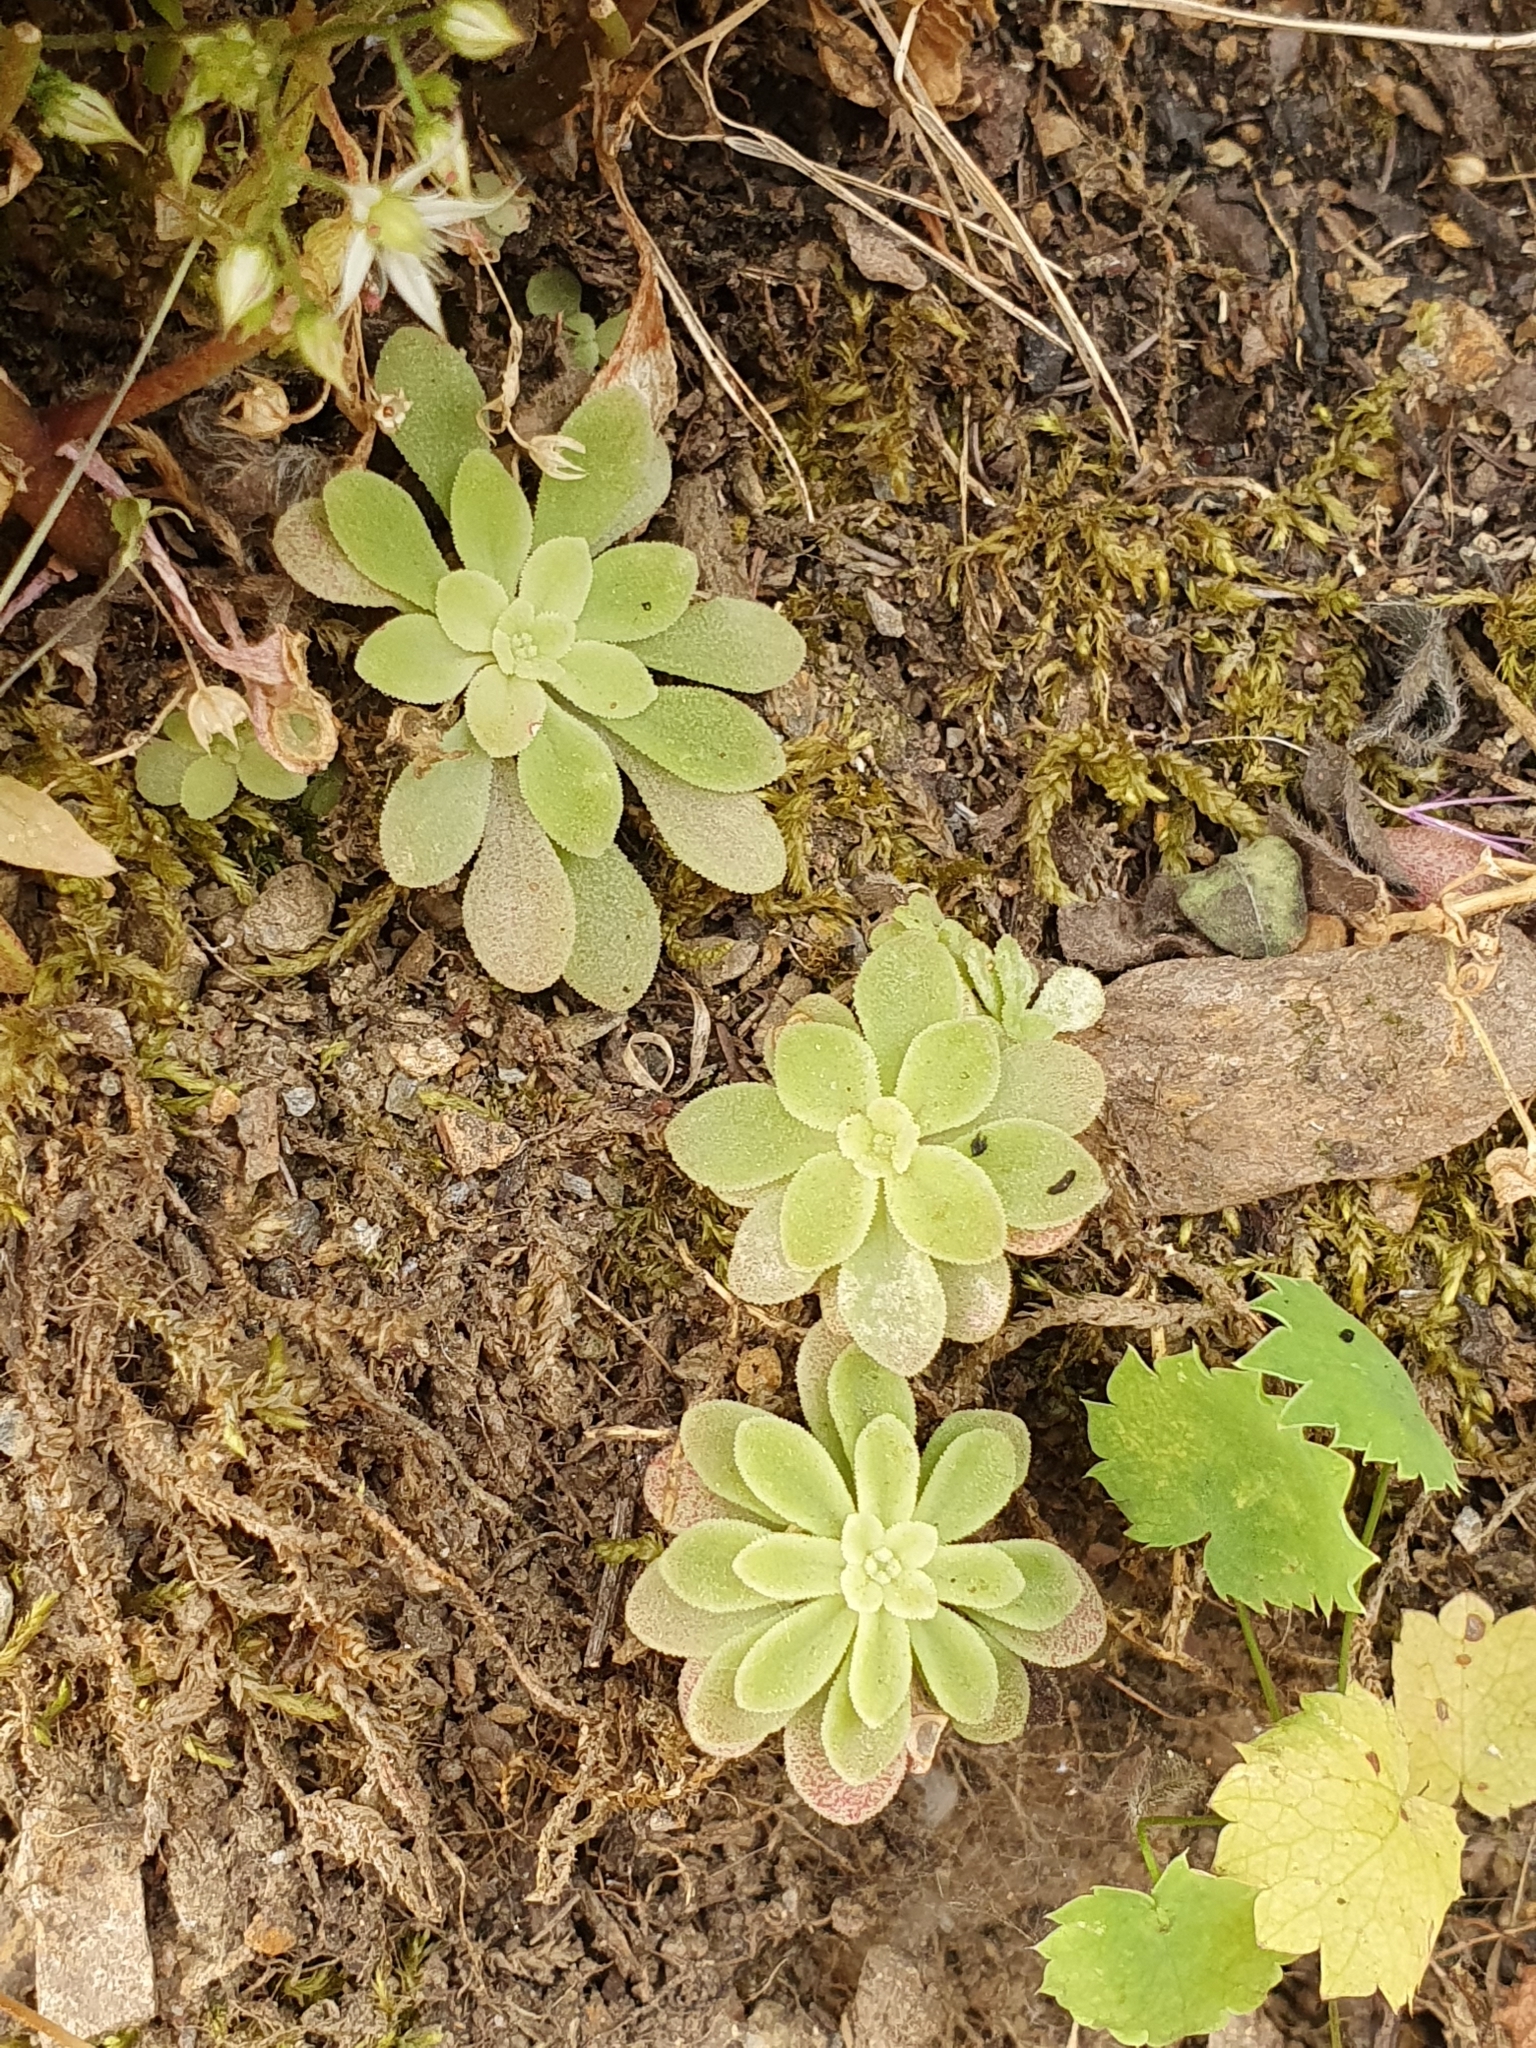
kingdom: Plantae
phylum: Tracheophyta
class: Magnoliopsida
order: Saxifragales
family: Crassulaceae
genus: Sedum
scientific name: Sedum cepaea
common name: Pink stonecrop
